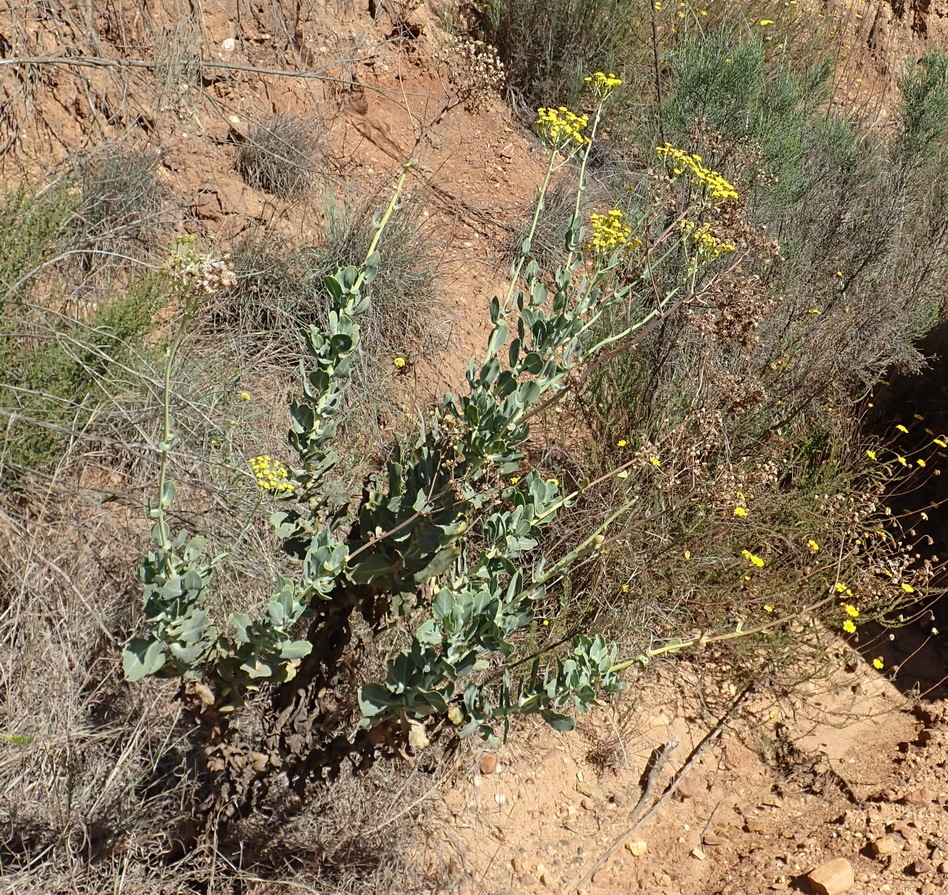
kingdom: Plantae
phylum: Tracheophyta
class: Magnoliopsida
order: Asterales
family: Asteraceae
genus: Othonna
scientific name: Othonna parviflora
